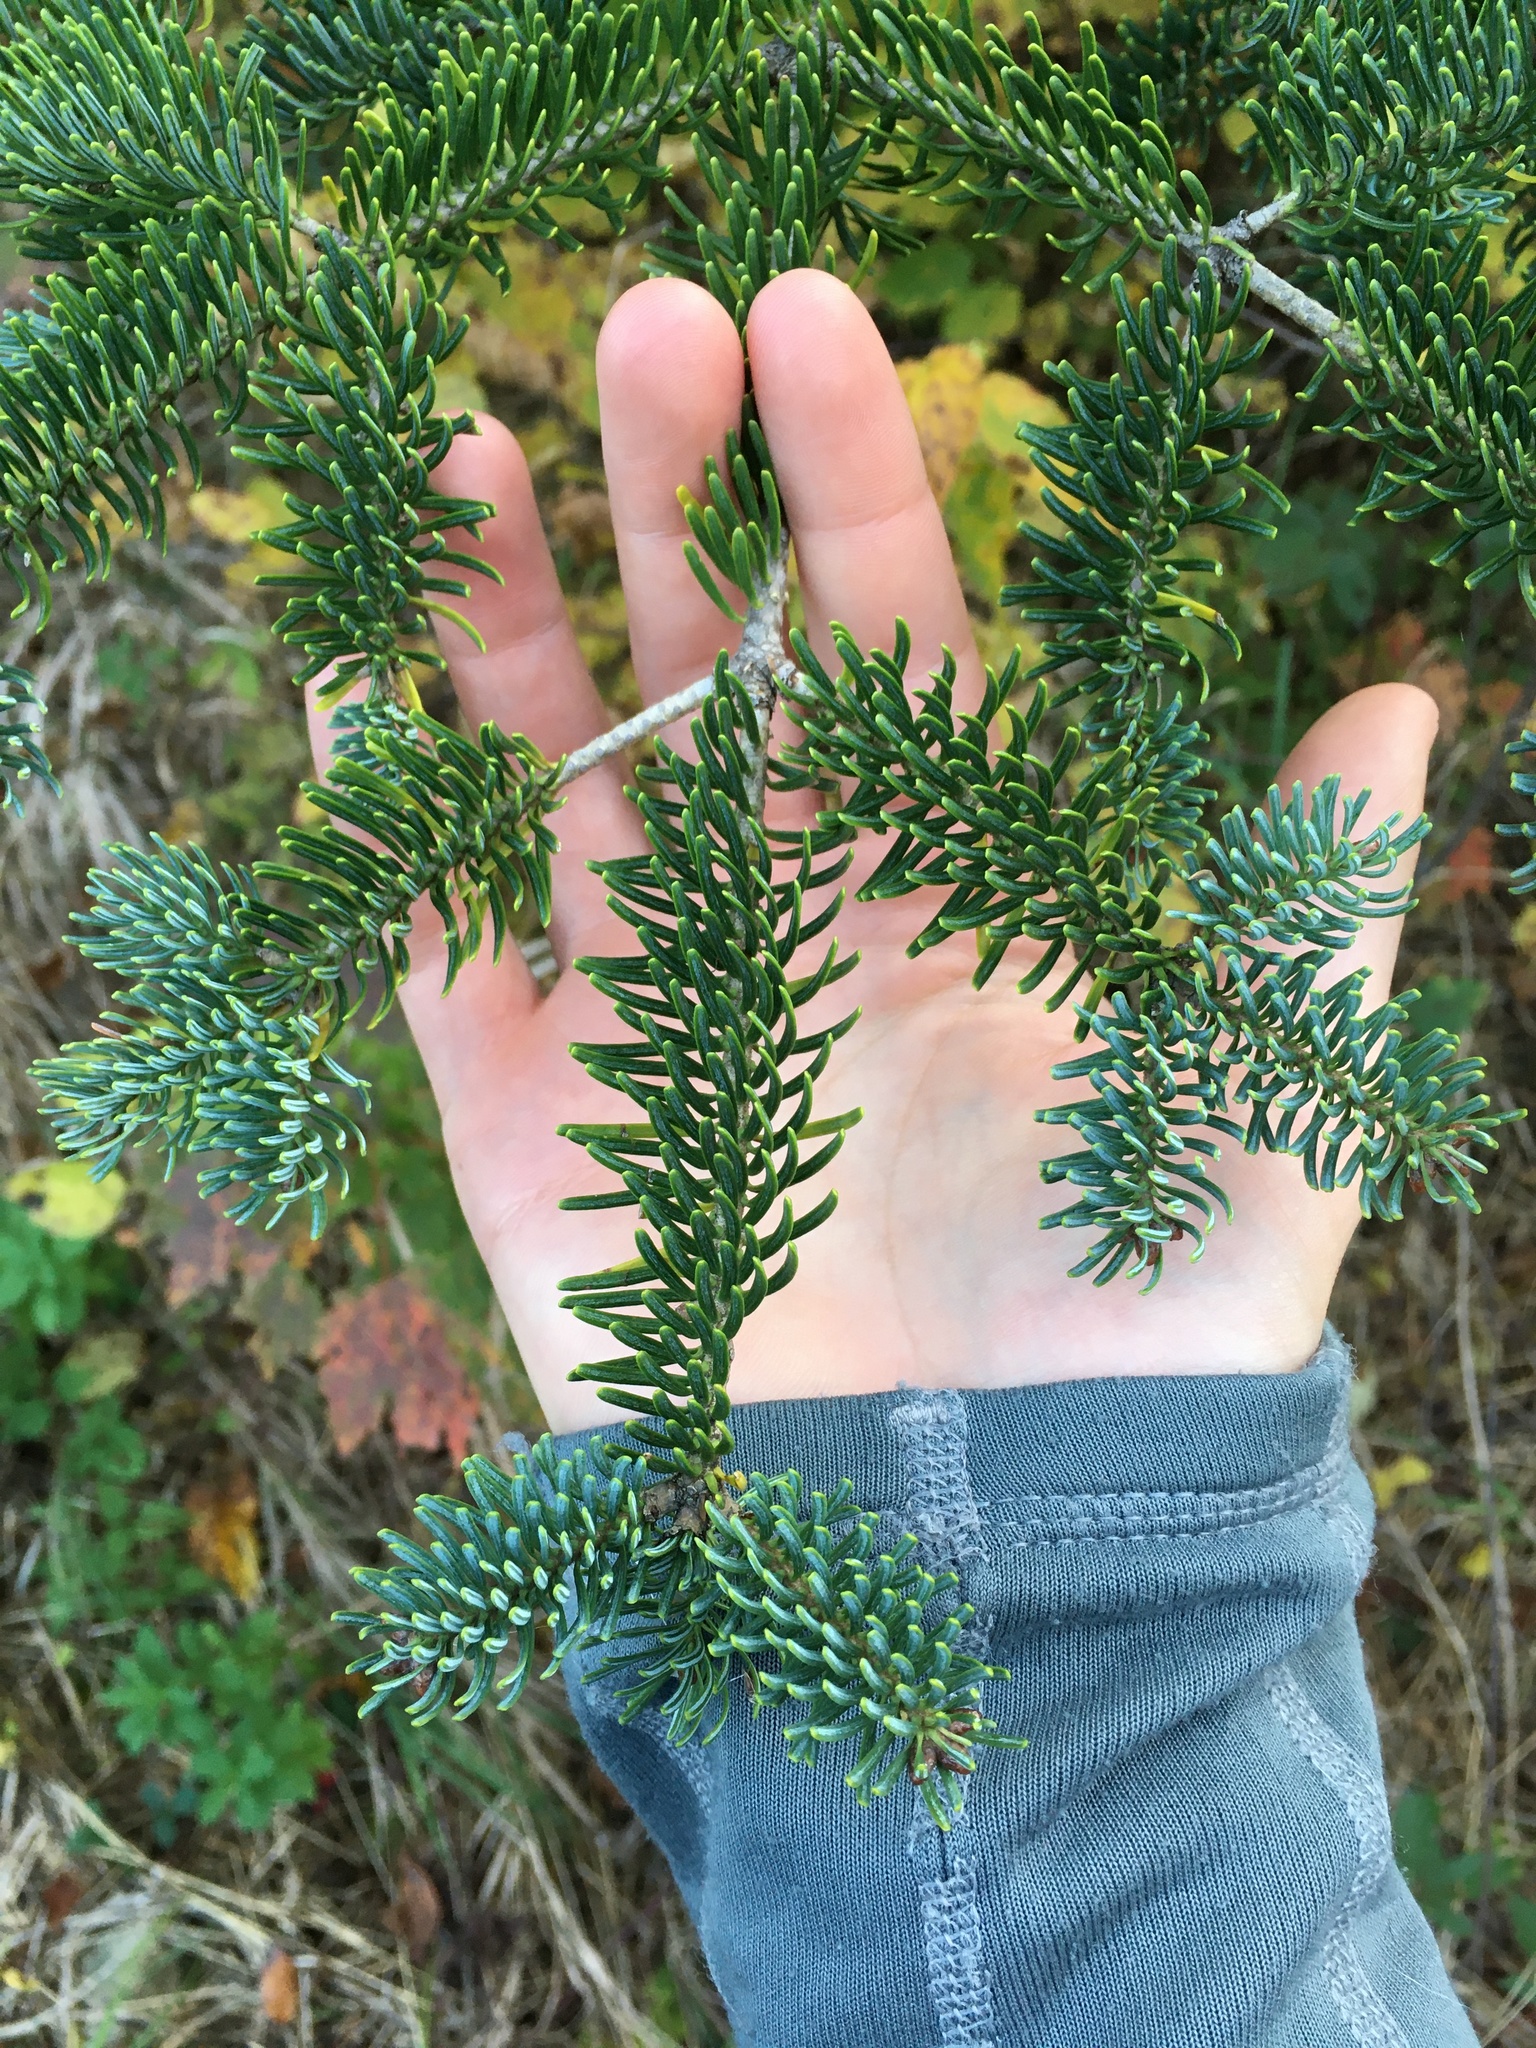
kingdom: Plantae
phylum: Tracheophyta
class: Pinopsida
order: Pinales
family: Pinaceae
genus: Abies
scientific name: Abies balsamea
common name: Balsam fir
